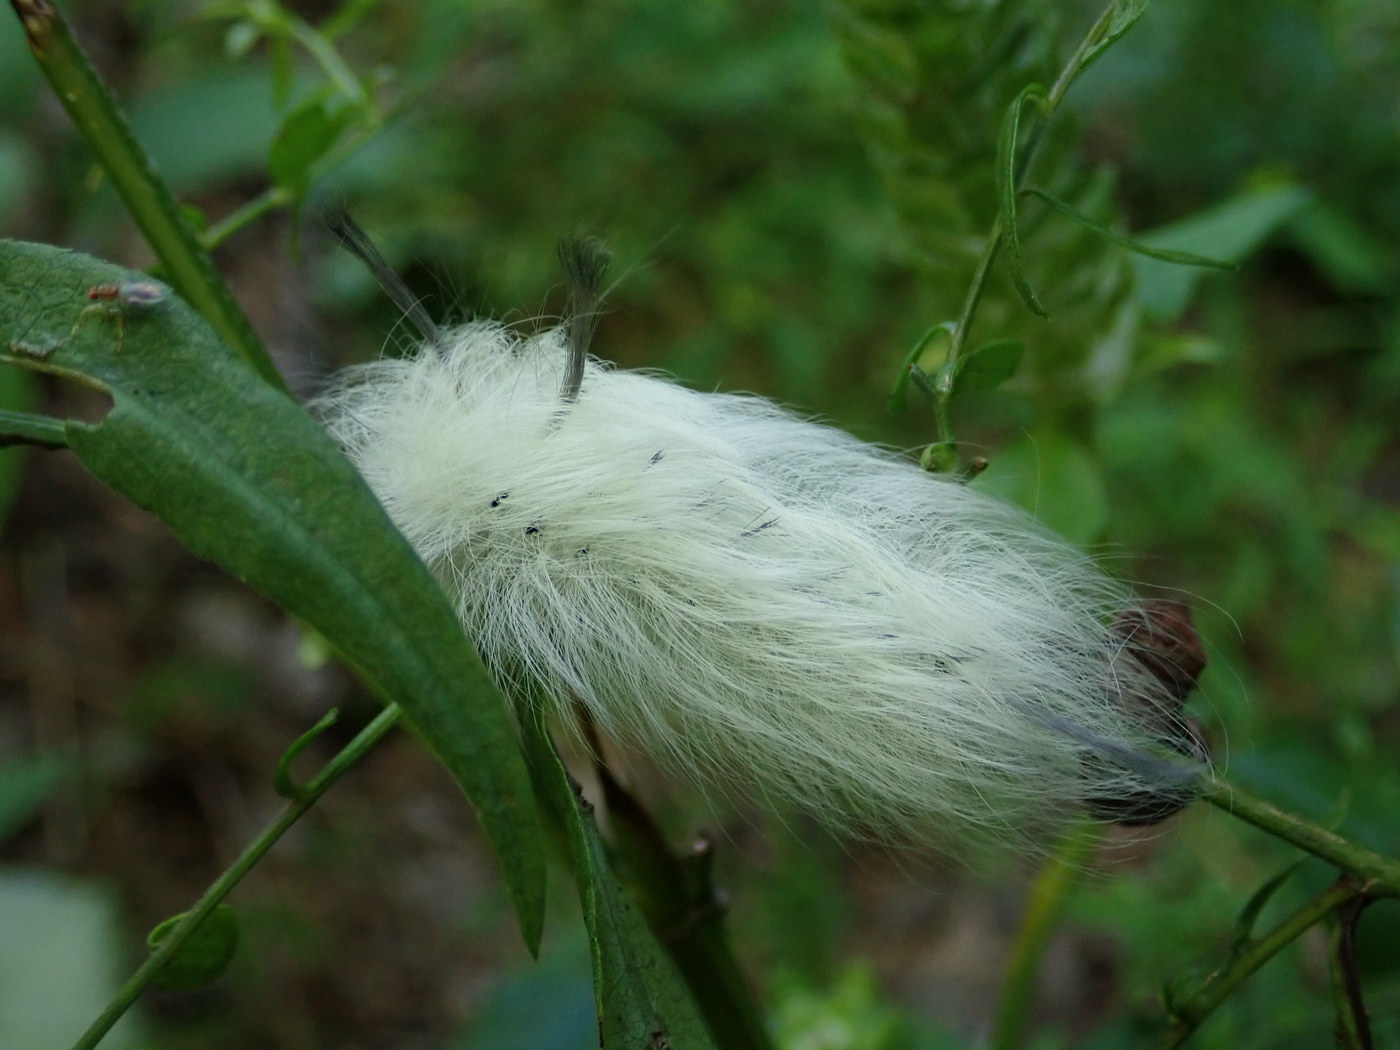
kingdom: Animalia
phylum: Arthropoda
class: Insecta
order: Lepidoptera
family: Apatelodidae
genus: Hygrochroa
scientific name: Hygrochroa Apatelodes torrefacta
